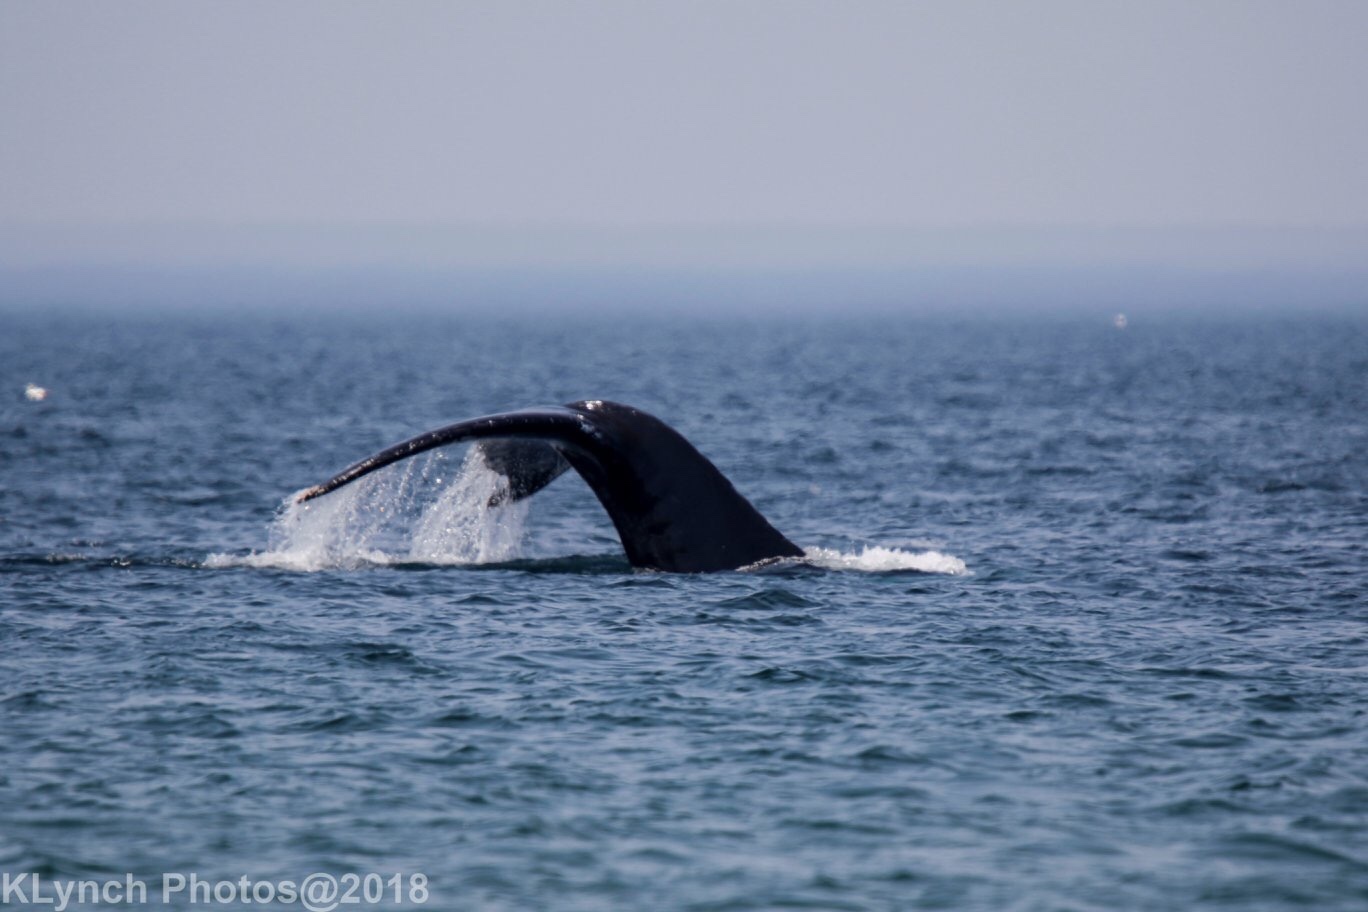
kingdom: Animalia
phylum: Chordata
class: Mammalia
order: Cetacea
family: Balaenopteridae
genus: Megaptera
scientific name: Megaptera novaeangliae
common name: Humpback whale
